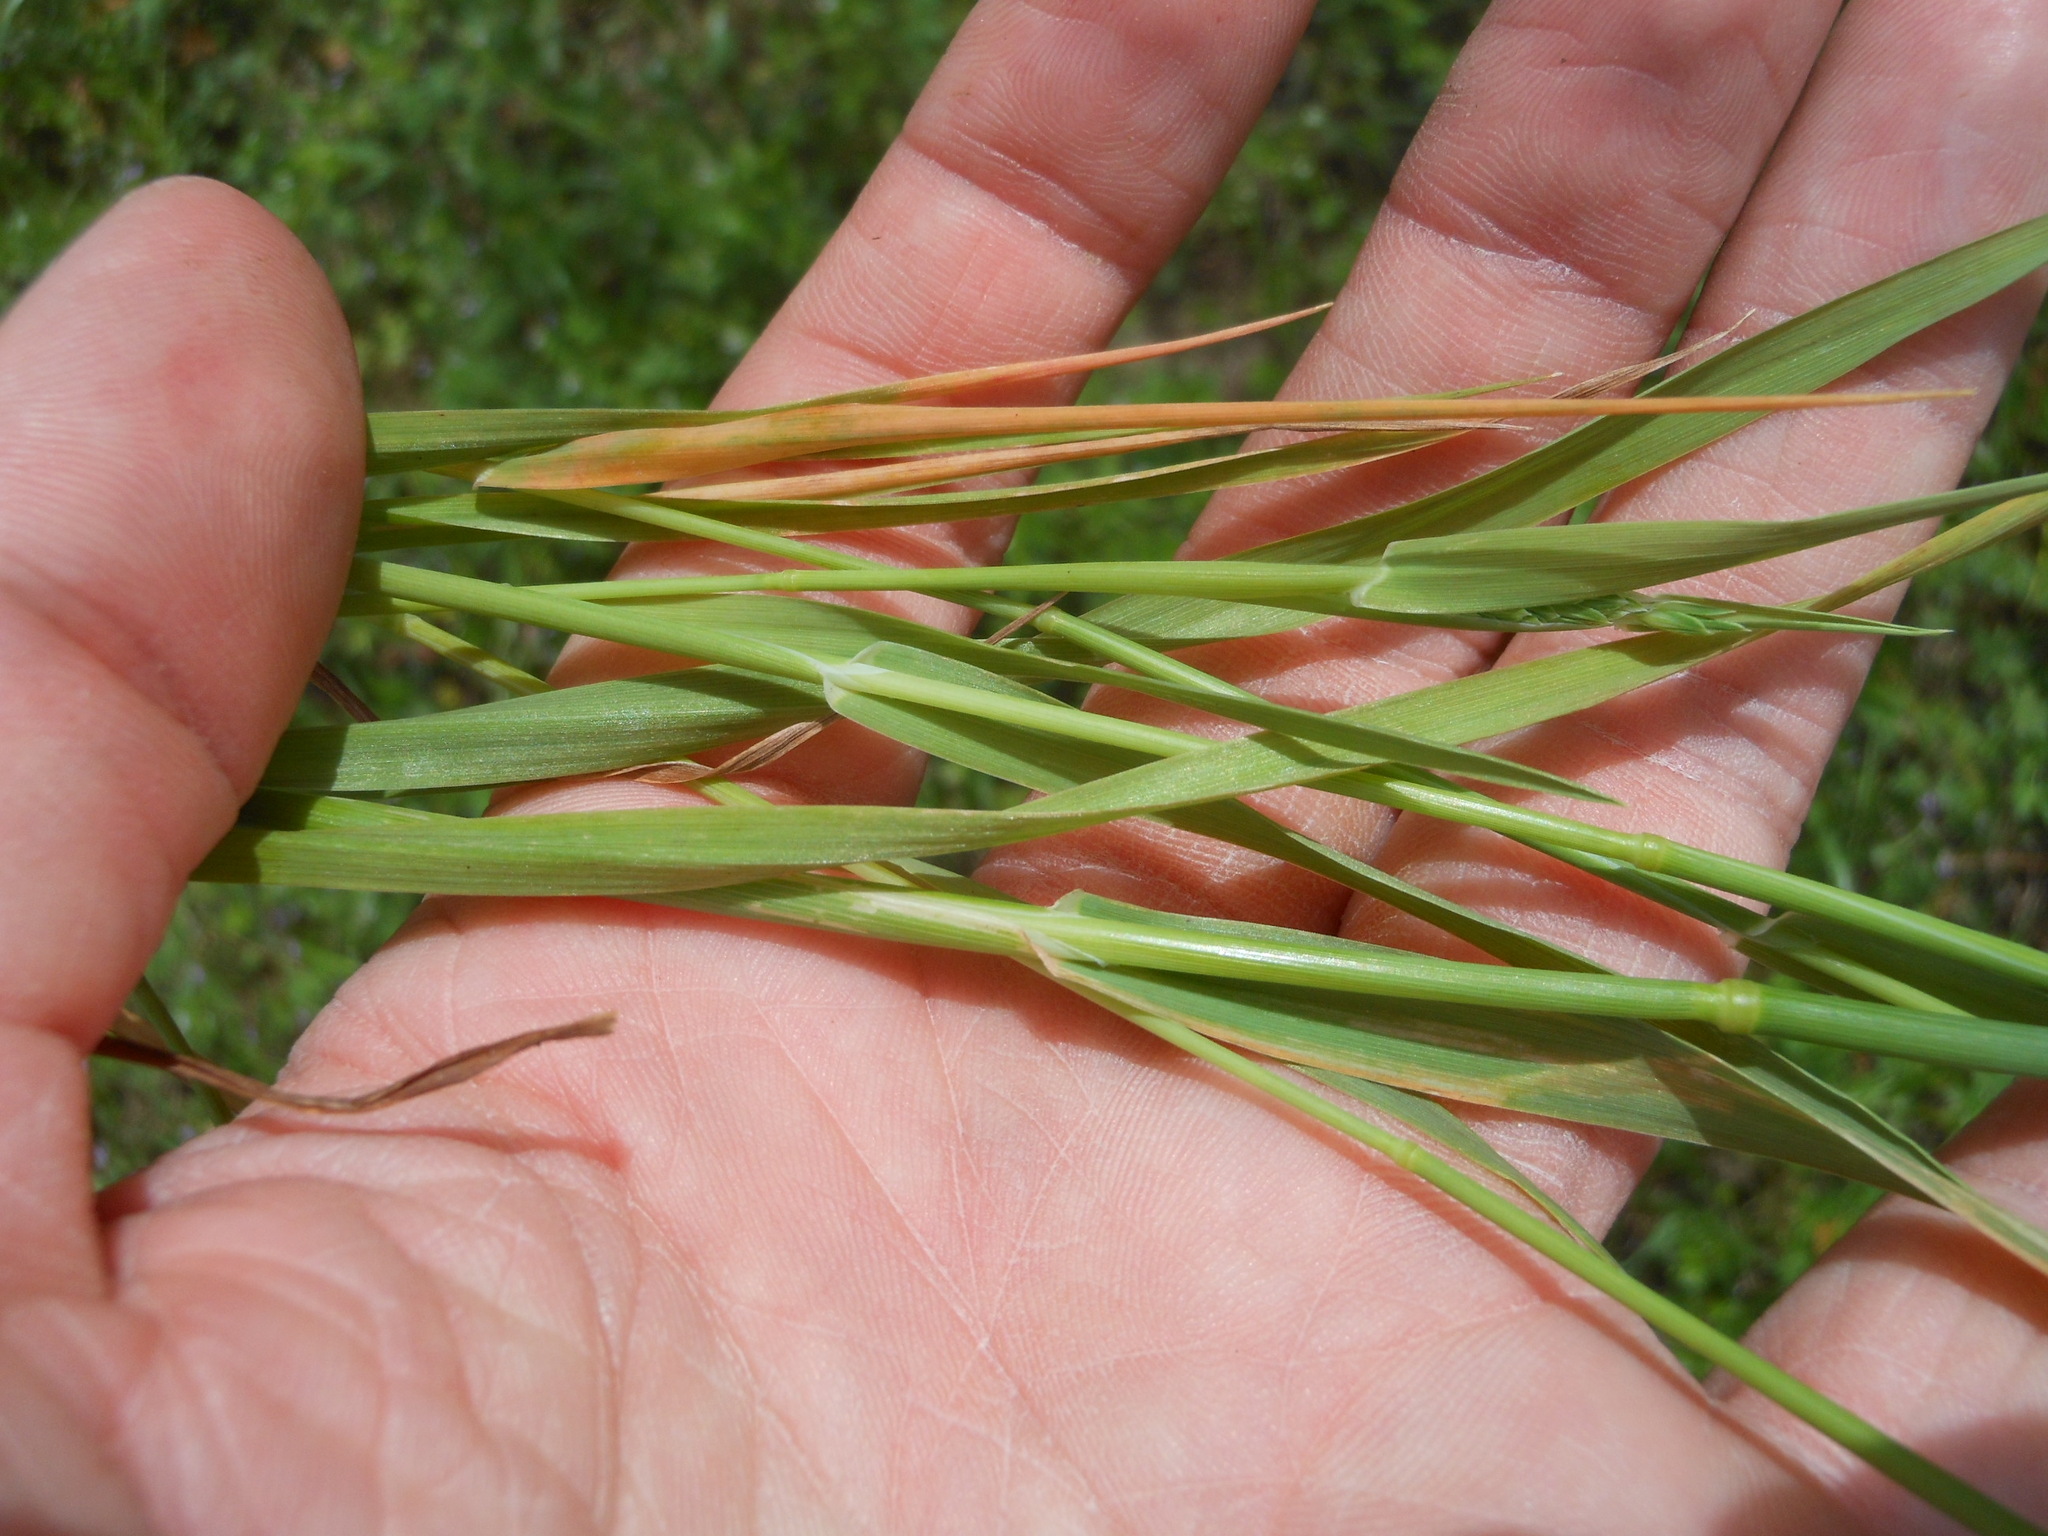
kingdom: Plantae
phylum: Tracheophyta
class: Liliopsida
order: Poales
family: Poaceae
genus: Phalaris
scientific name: Phalaris caroliniana
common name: May grass
